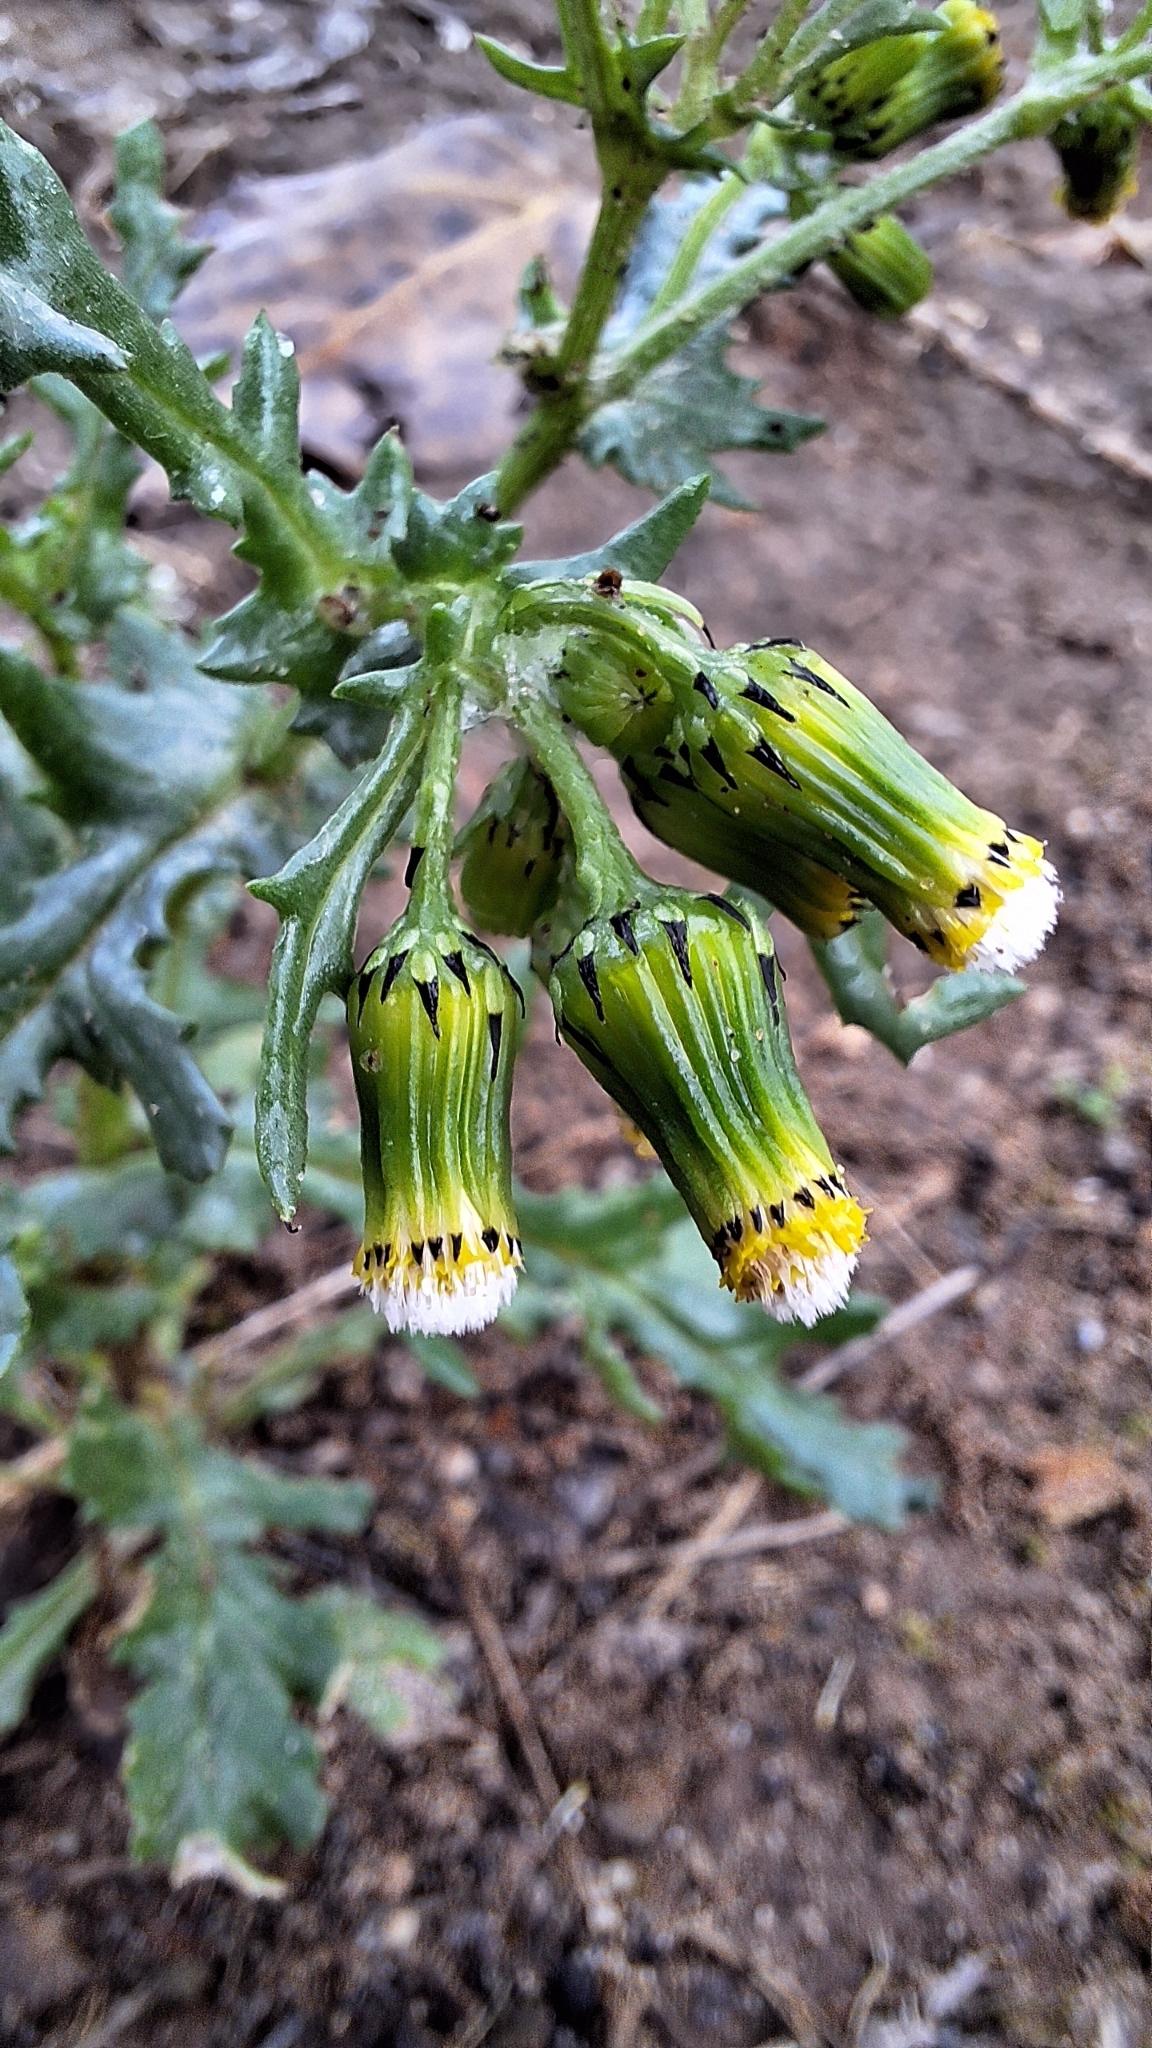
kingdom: Plantae
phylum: Tracheophyta
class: Magnoliopsida
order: Asterales
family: Asteraceae
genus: Senecio
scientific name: Senecio vulgaris
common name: Old-man-in-the-spring
